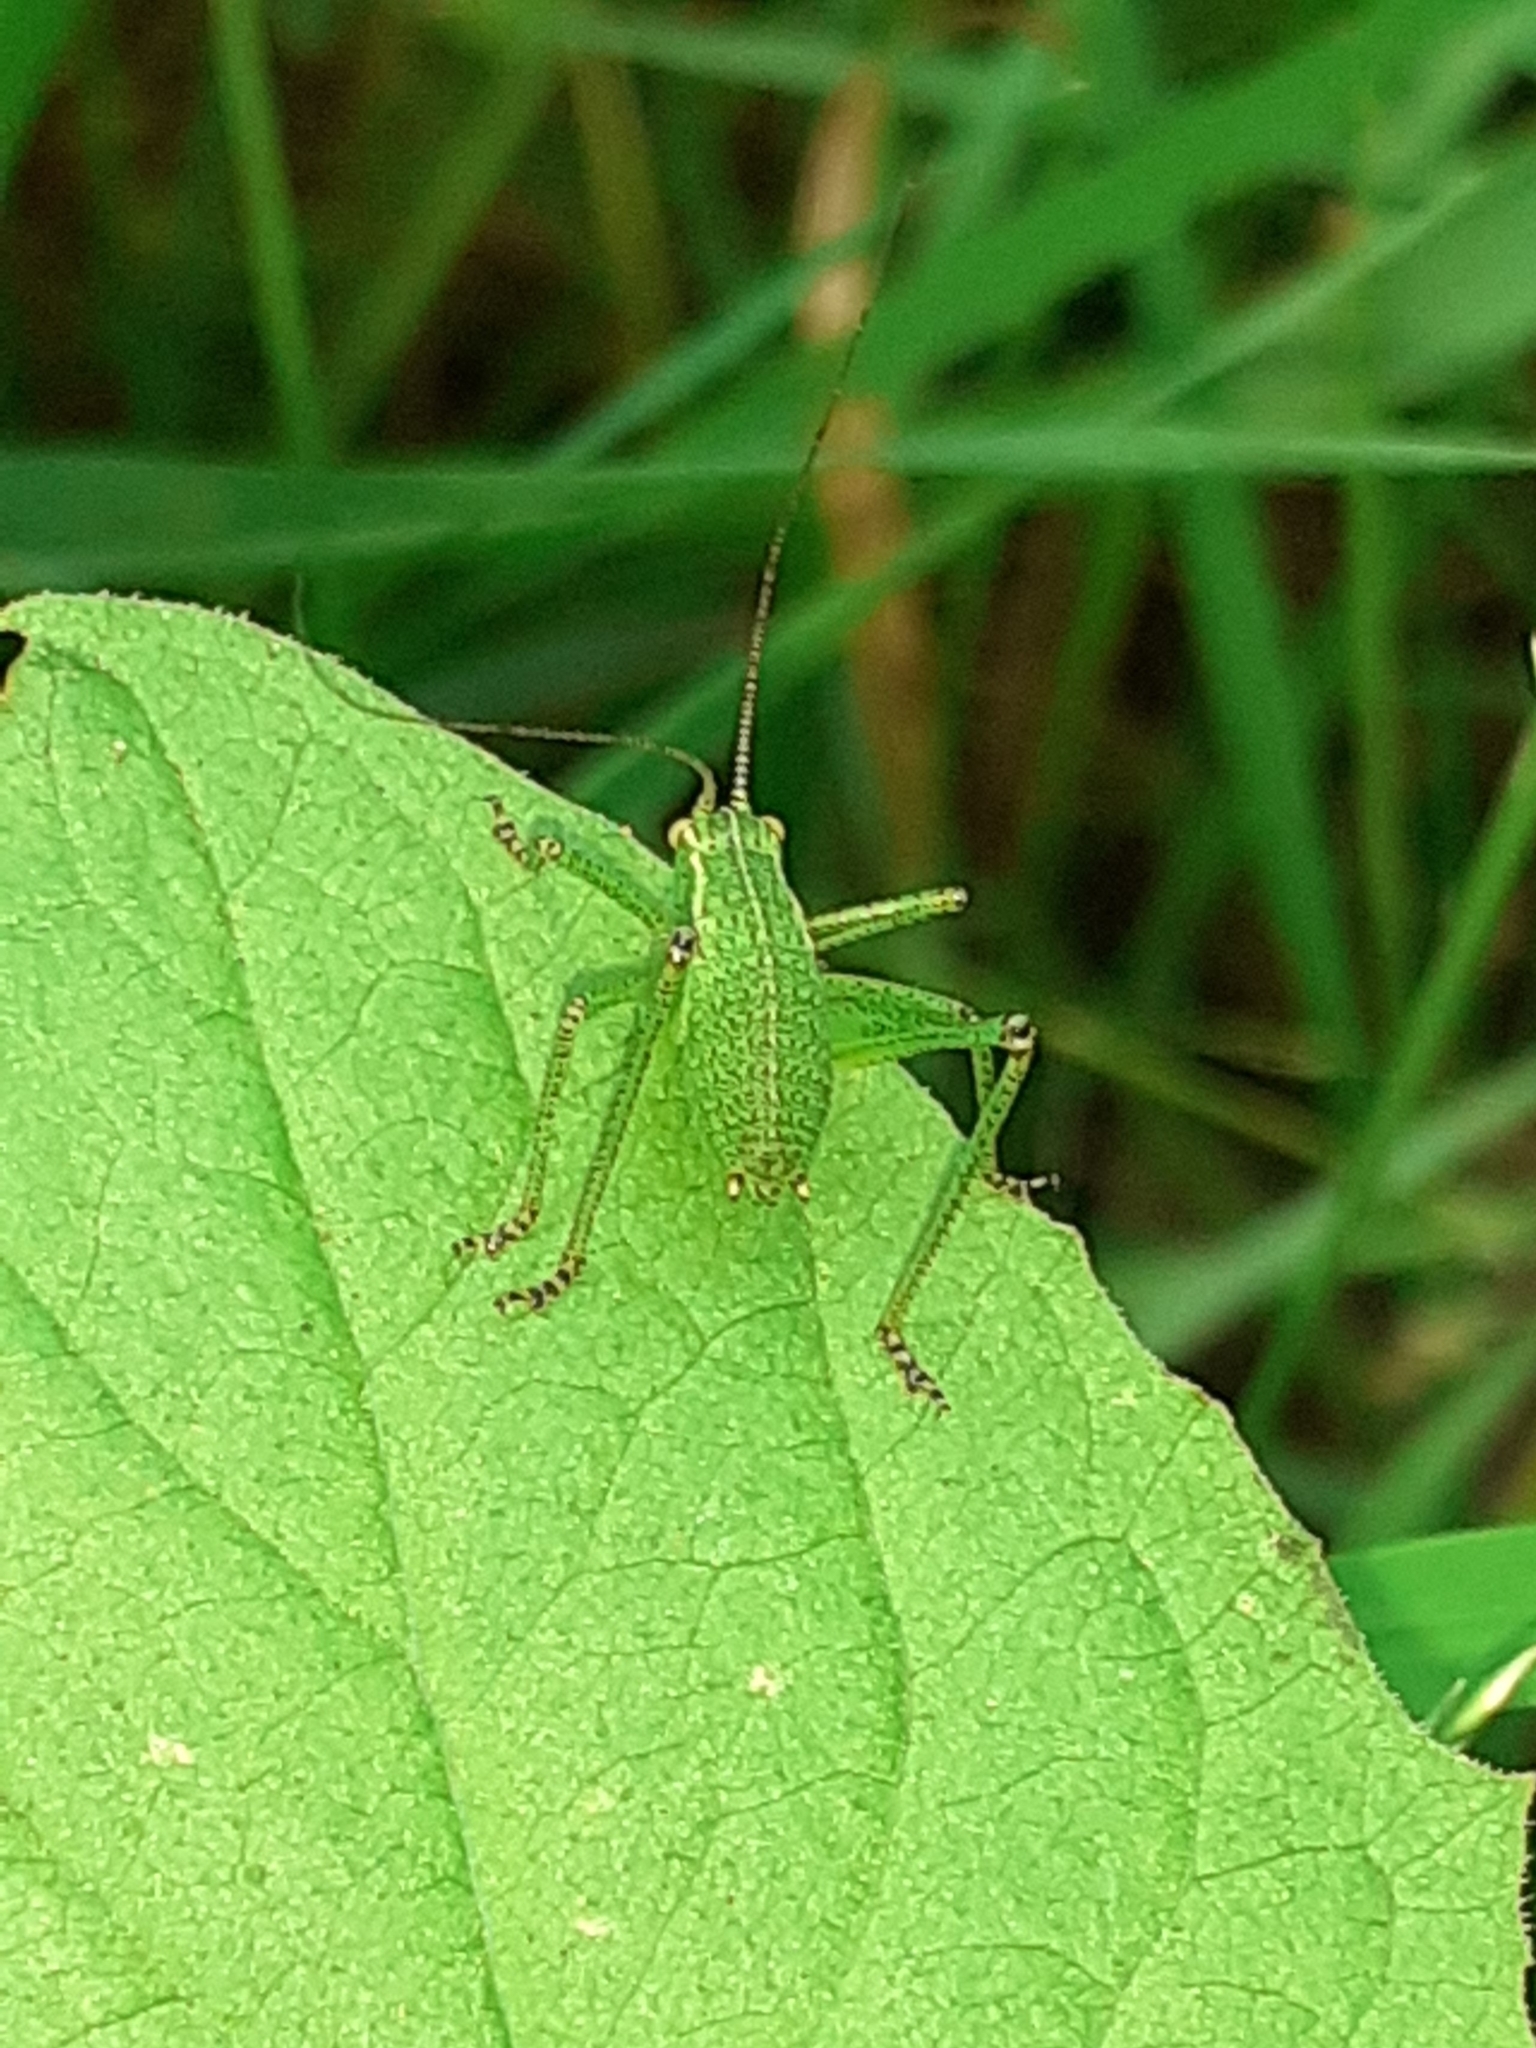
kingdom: Animalia
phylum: Arthropoda
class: Insecta
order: Orthoptera
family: Tettigoniidae
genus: Leptophyes
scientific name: Leptophyes punctatissima
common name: Speckled bush-cricket
